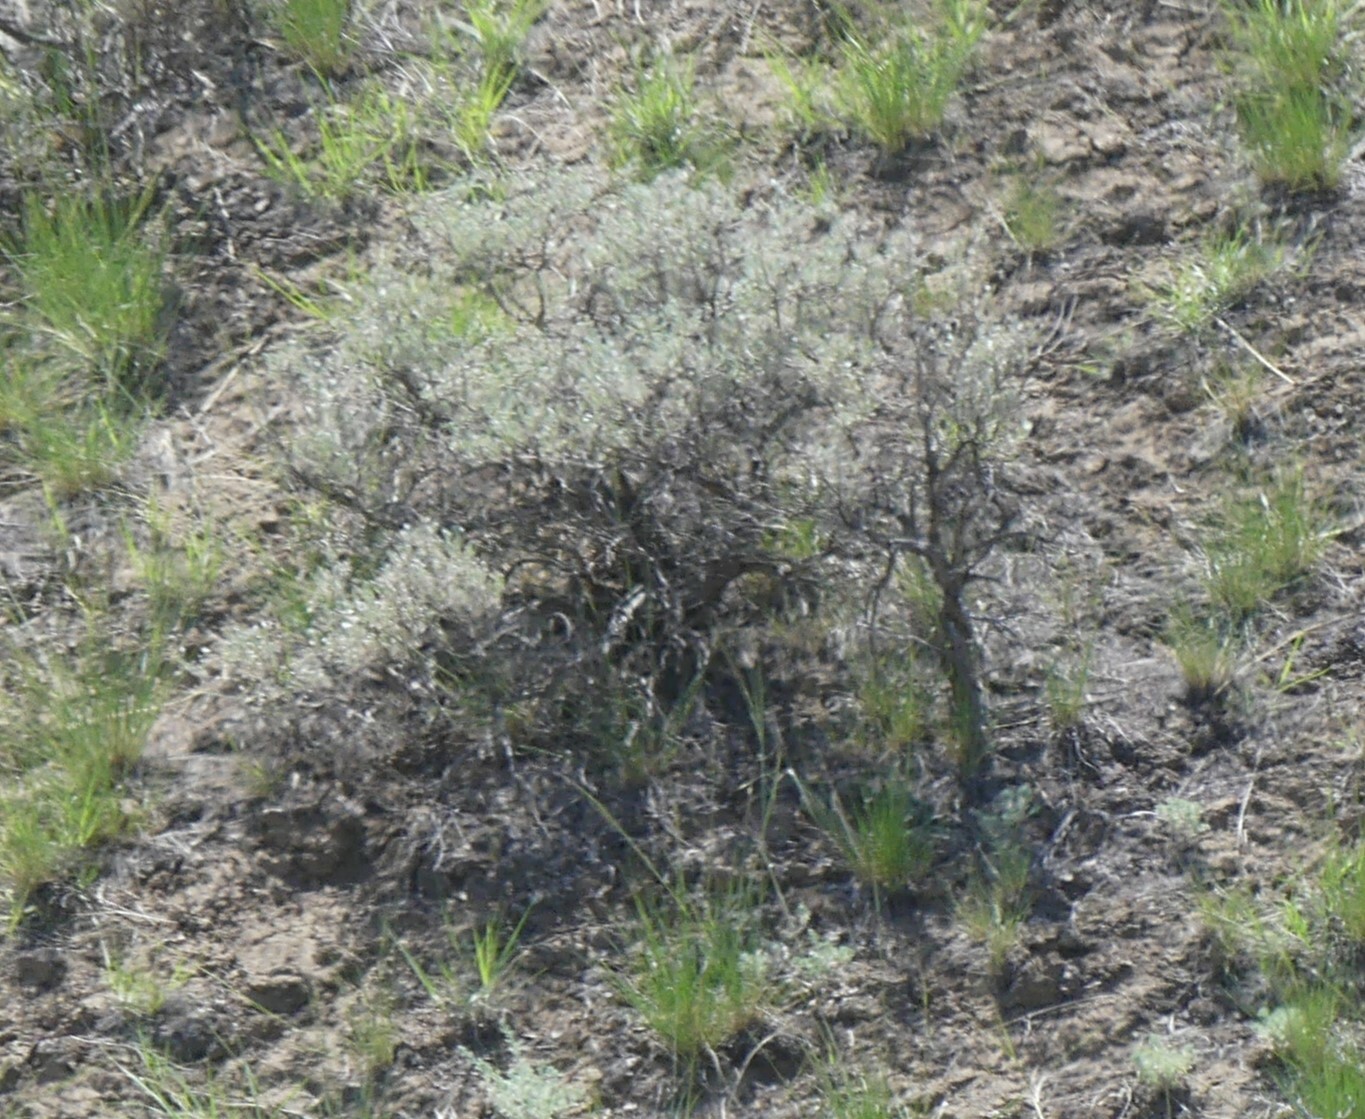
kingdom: Plantae
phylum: Tracheophyta
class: Magnoliopsida
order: Asterales
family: Asteraceae
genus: Artemisia
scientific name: Artemisia tridentata
